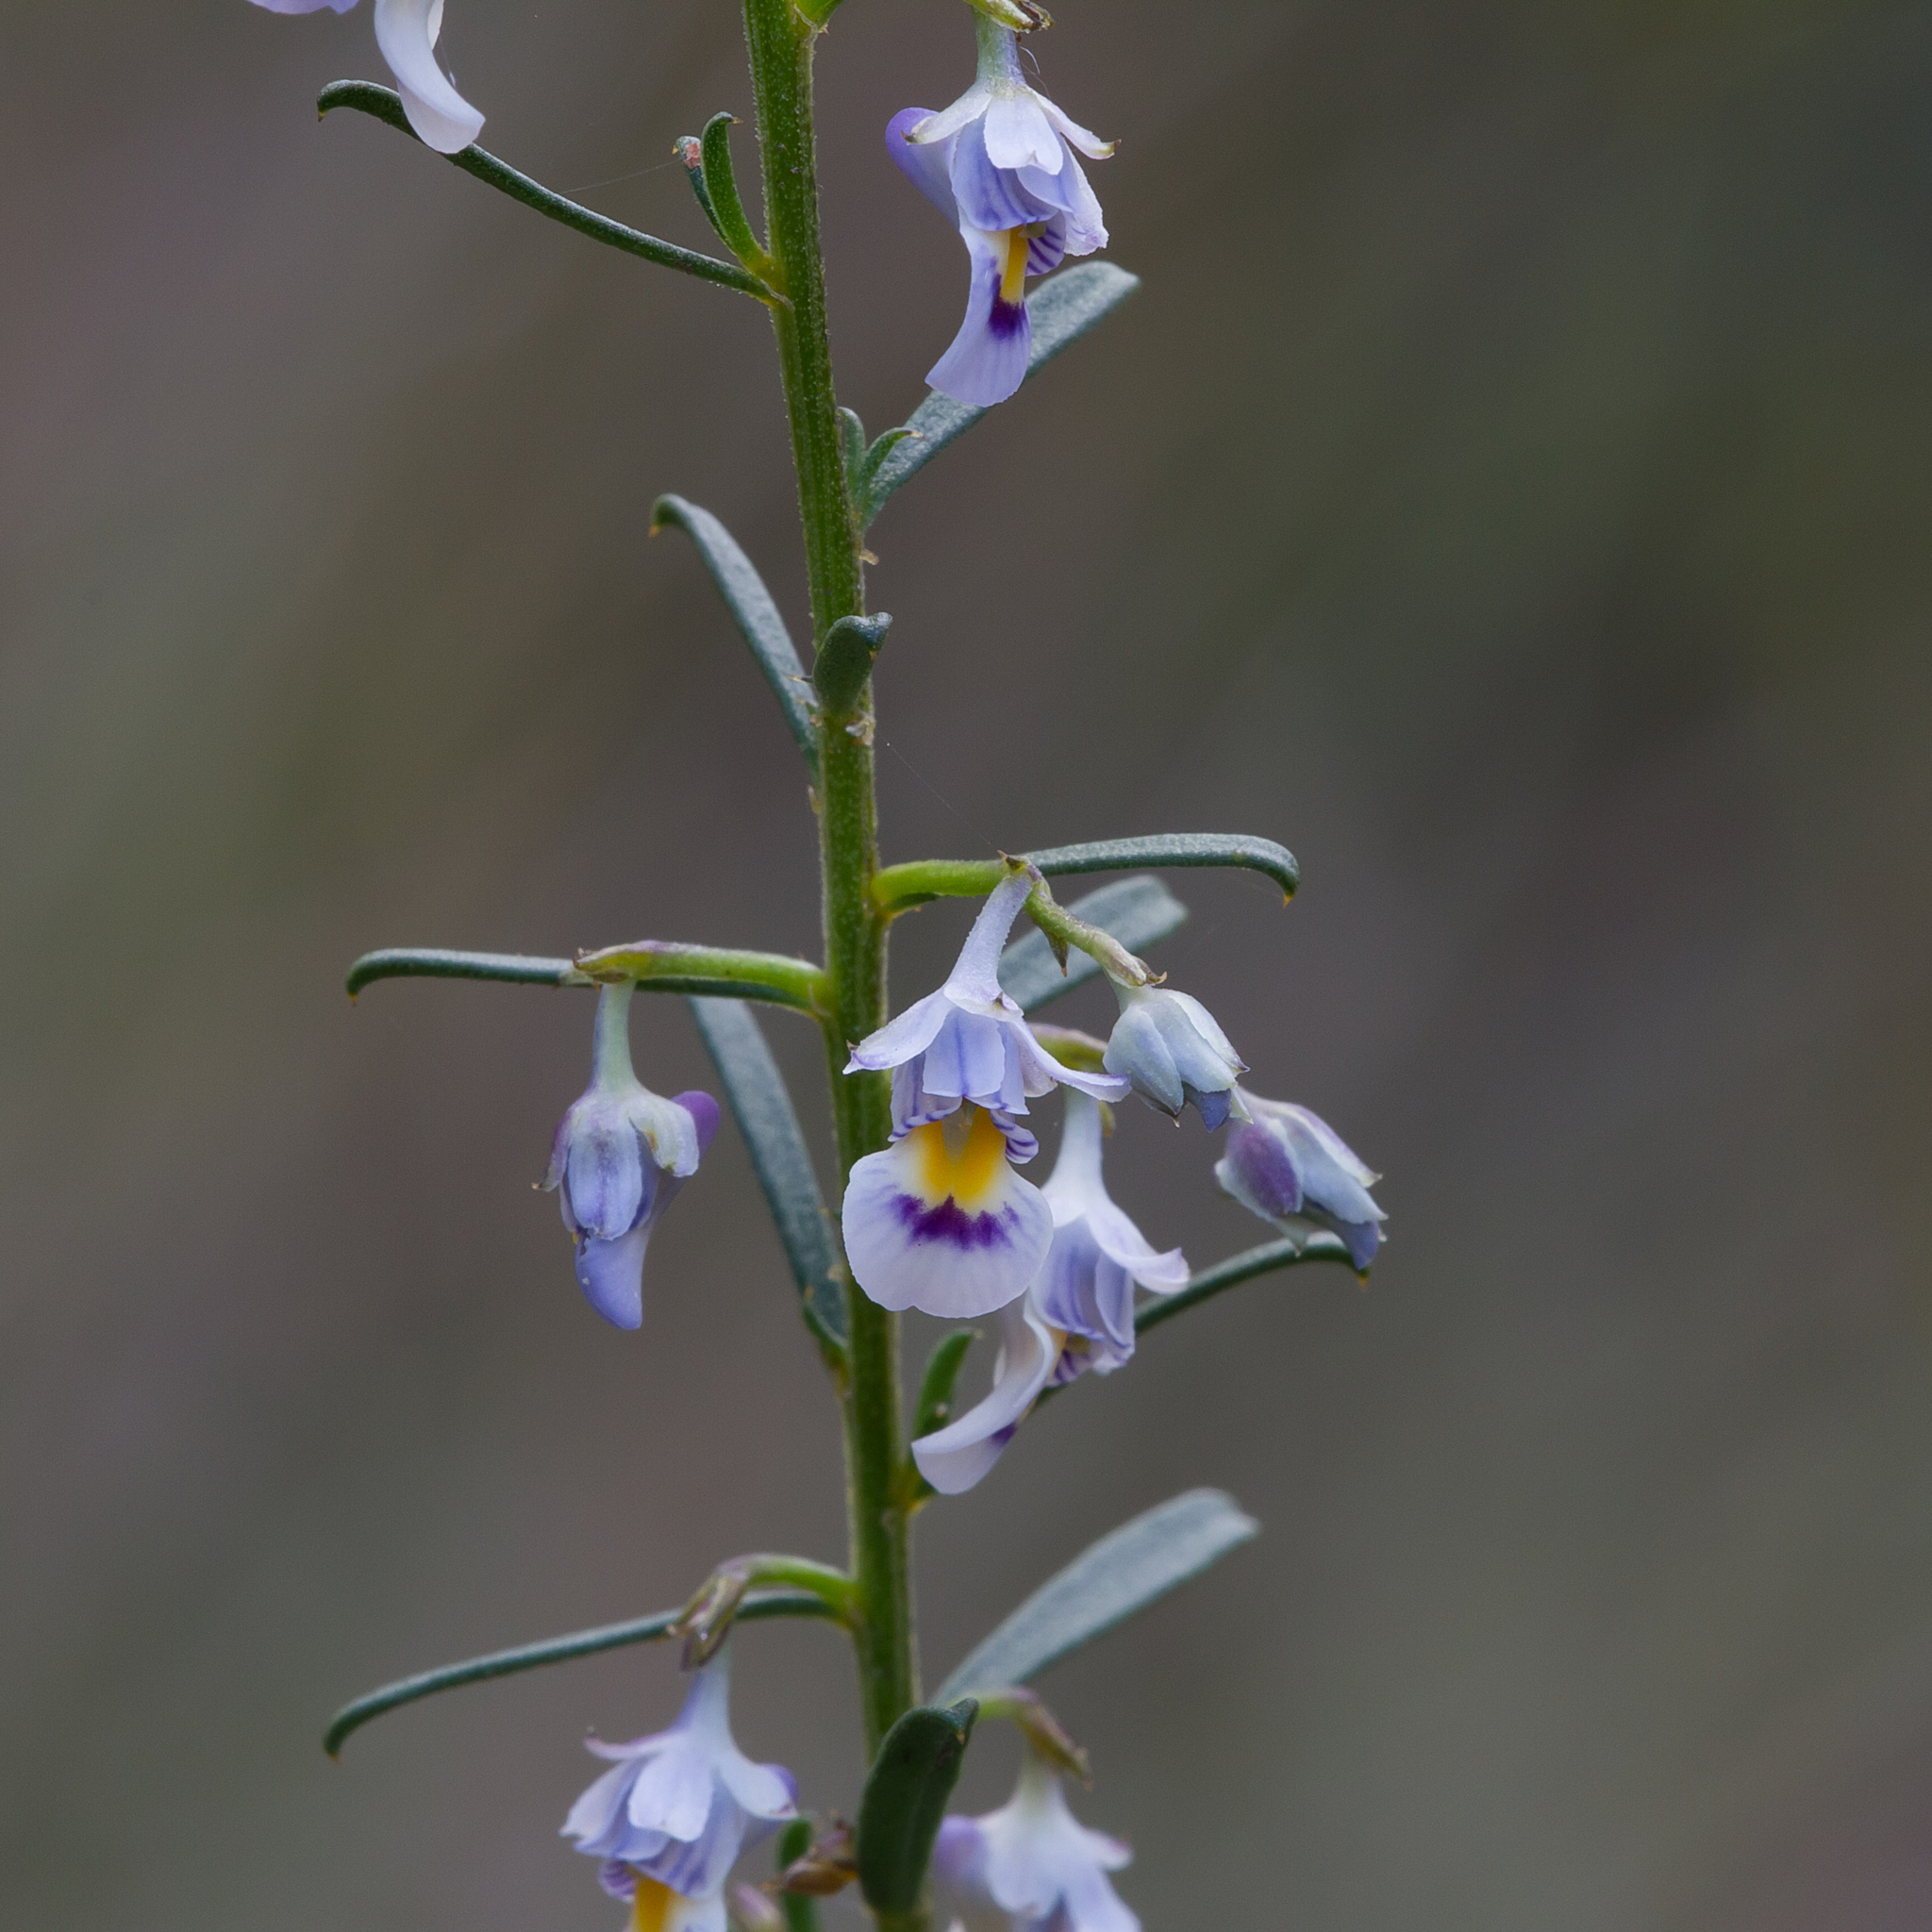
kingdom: Plantae
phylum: Tracheophyta
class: Magnoliopsida
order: Malpighiales
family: Violaceae
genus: Pigea
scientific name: Pigea floribunda
